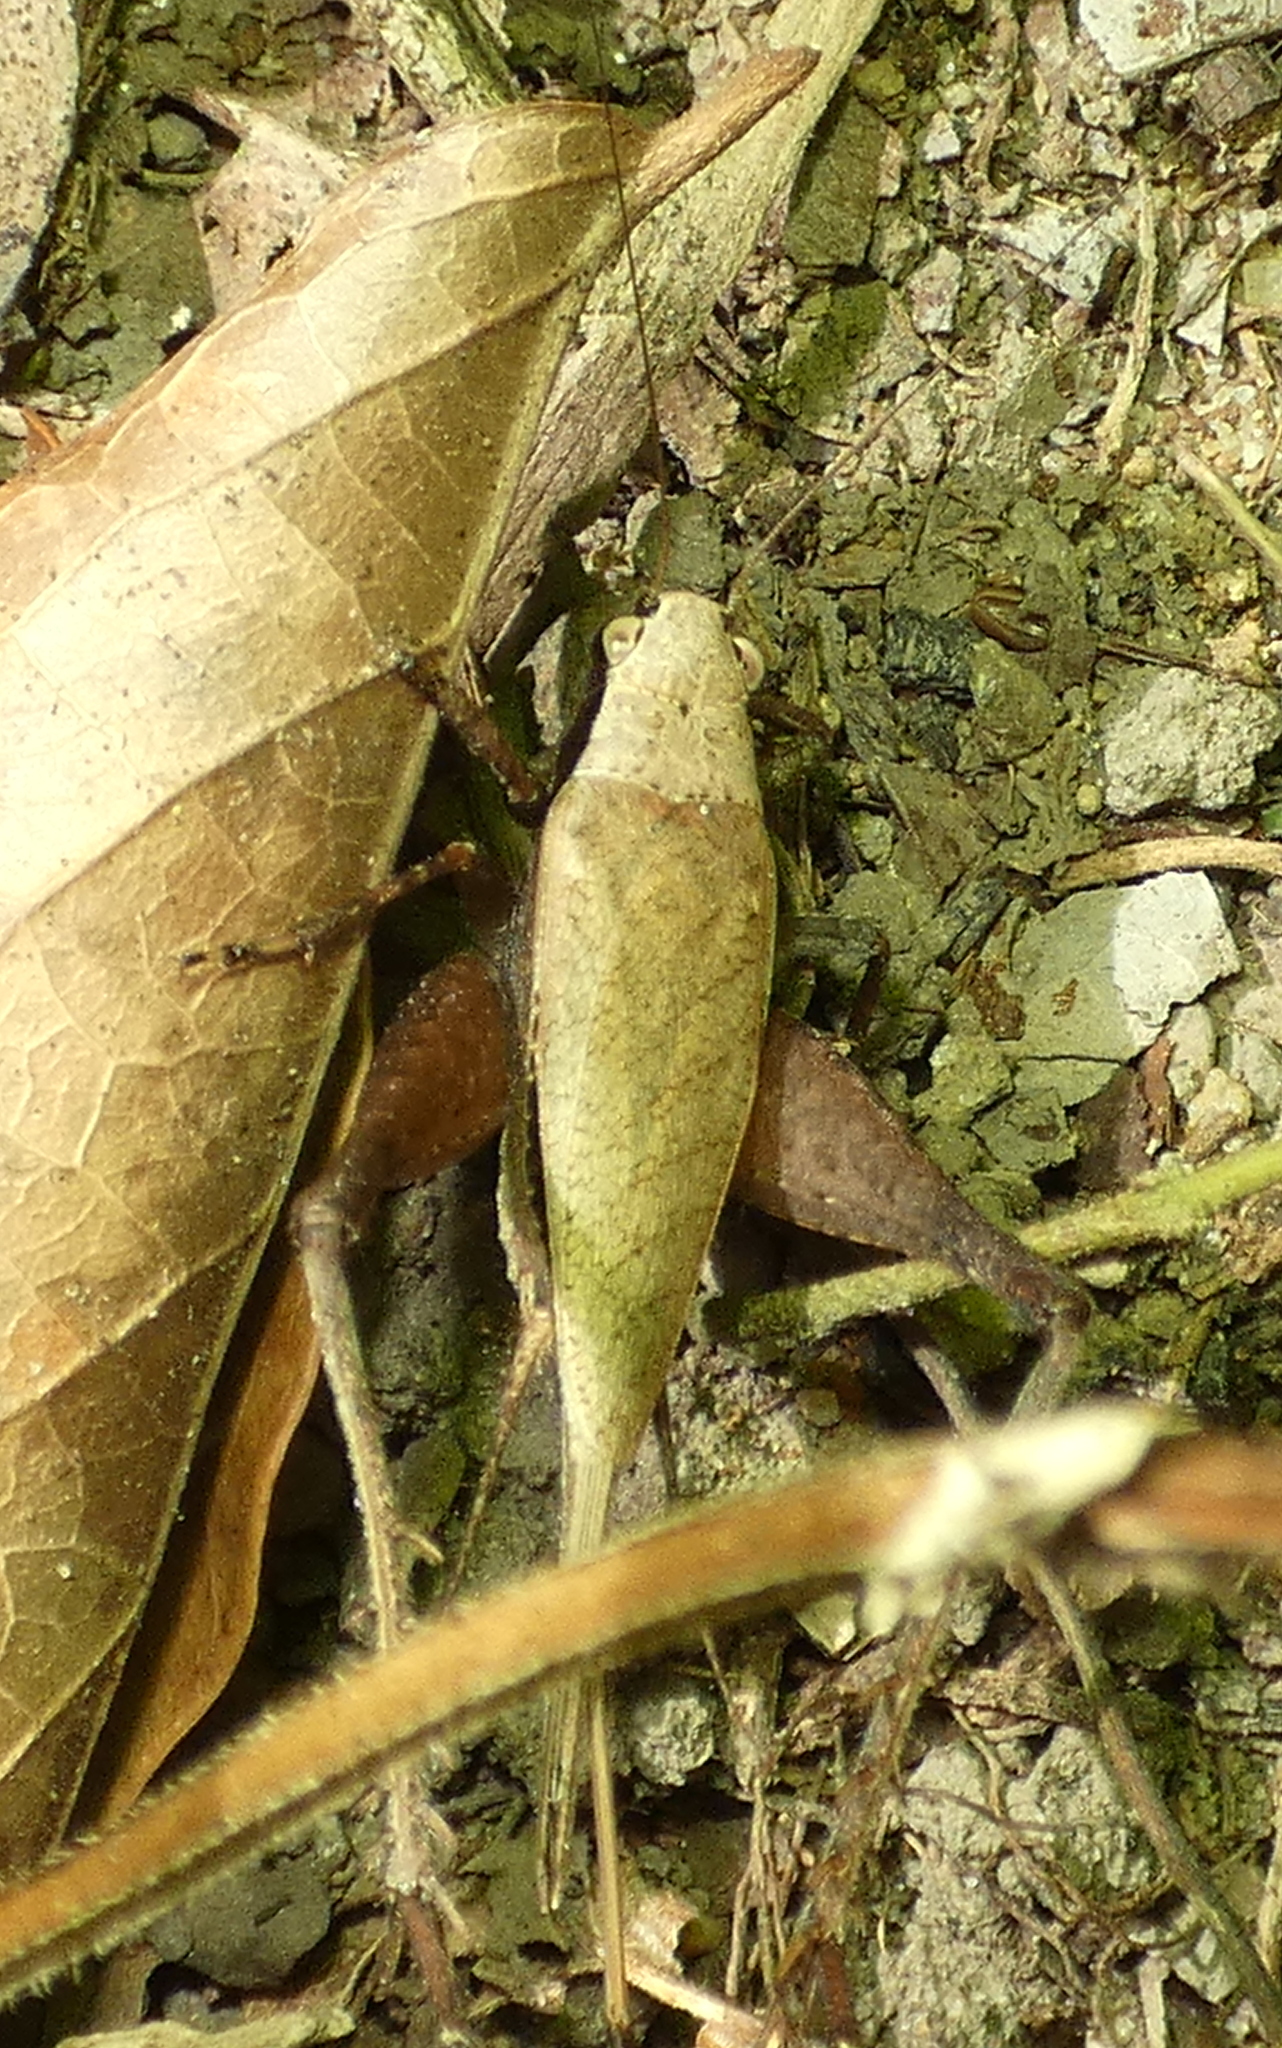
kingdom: Animalia
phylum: Arthropoda
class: Insecta
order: Orthoptera
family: Gryllidae
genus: Eneoptera
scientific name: Eneoptera surinamensis
